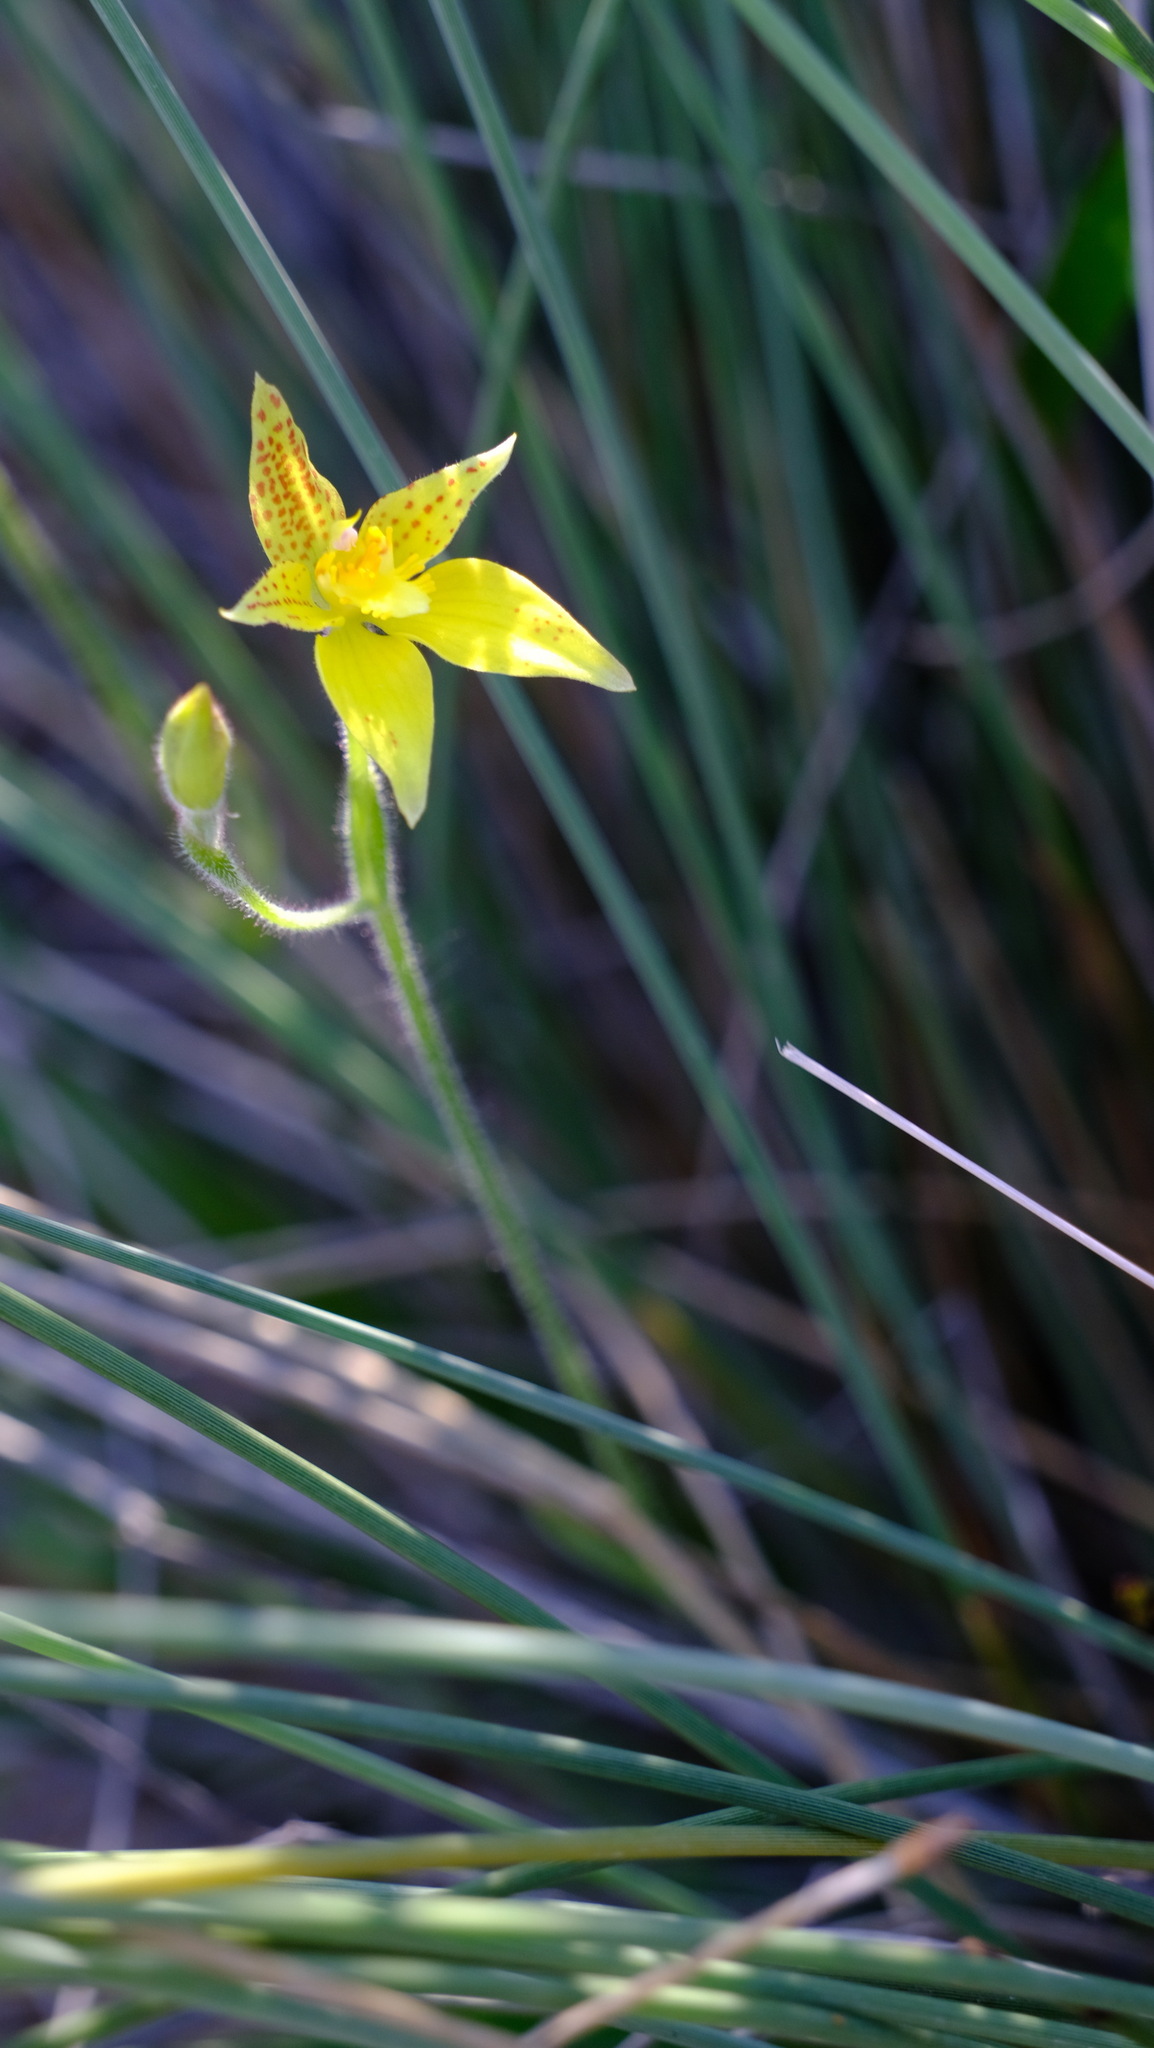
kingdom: Plantae
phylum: Tracheophyta
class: Liliopsida
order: Asparagales
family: Orchidaceae
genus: Caladenia
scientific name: Caladenia flava
